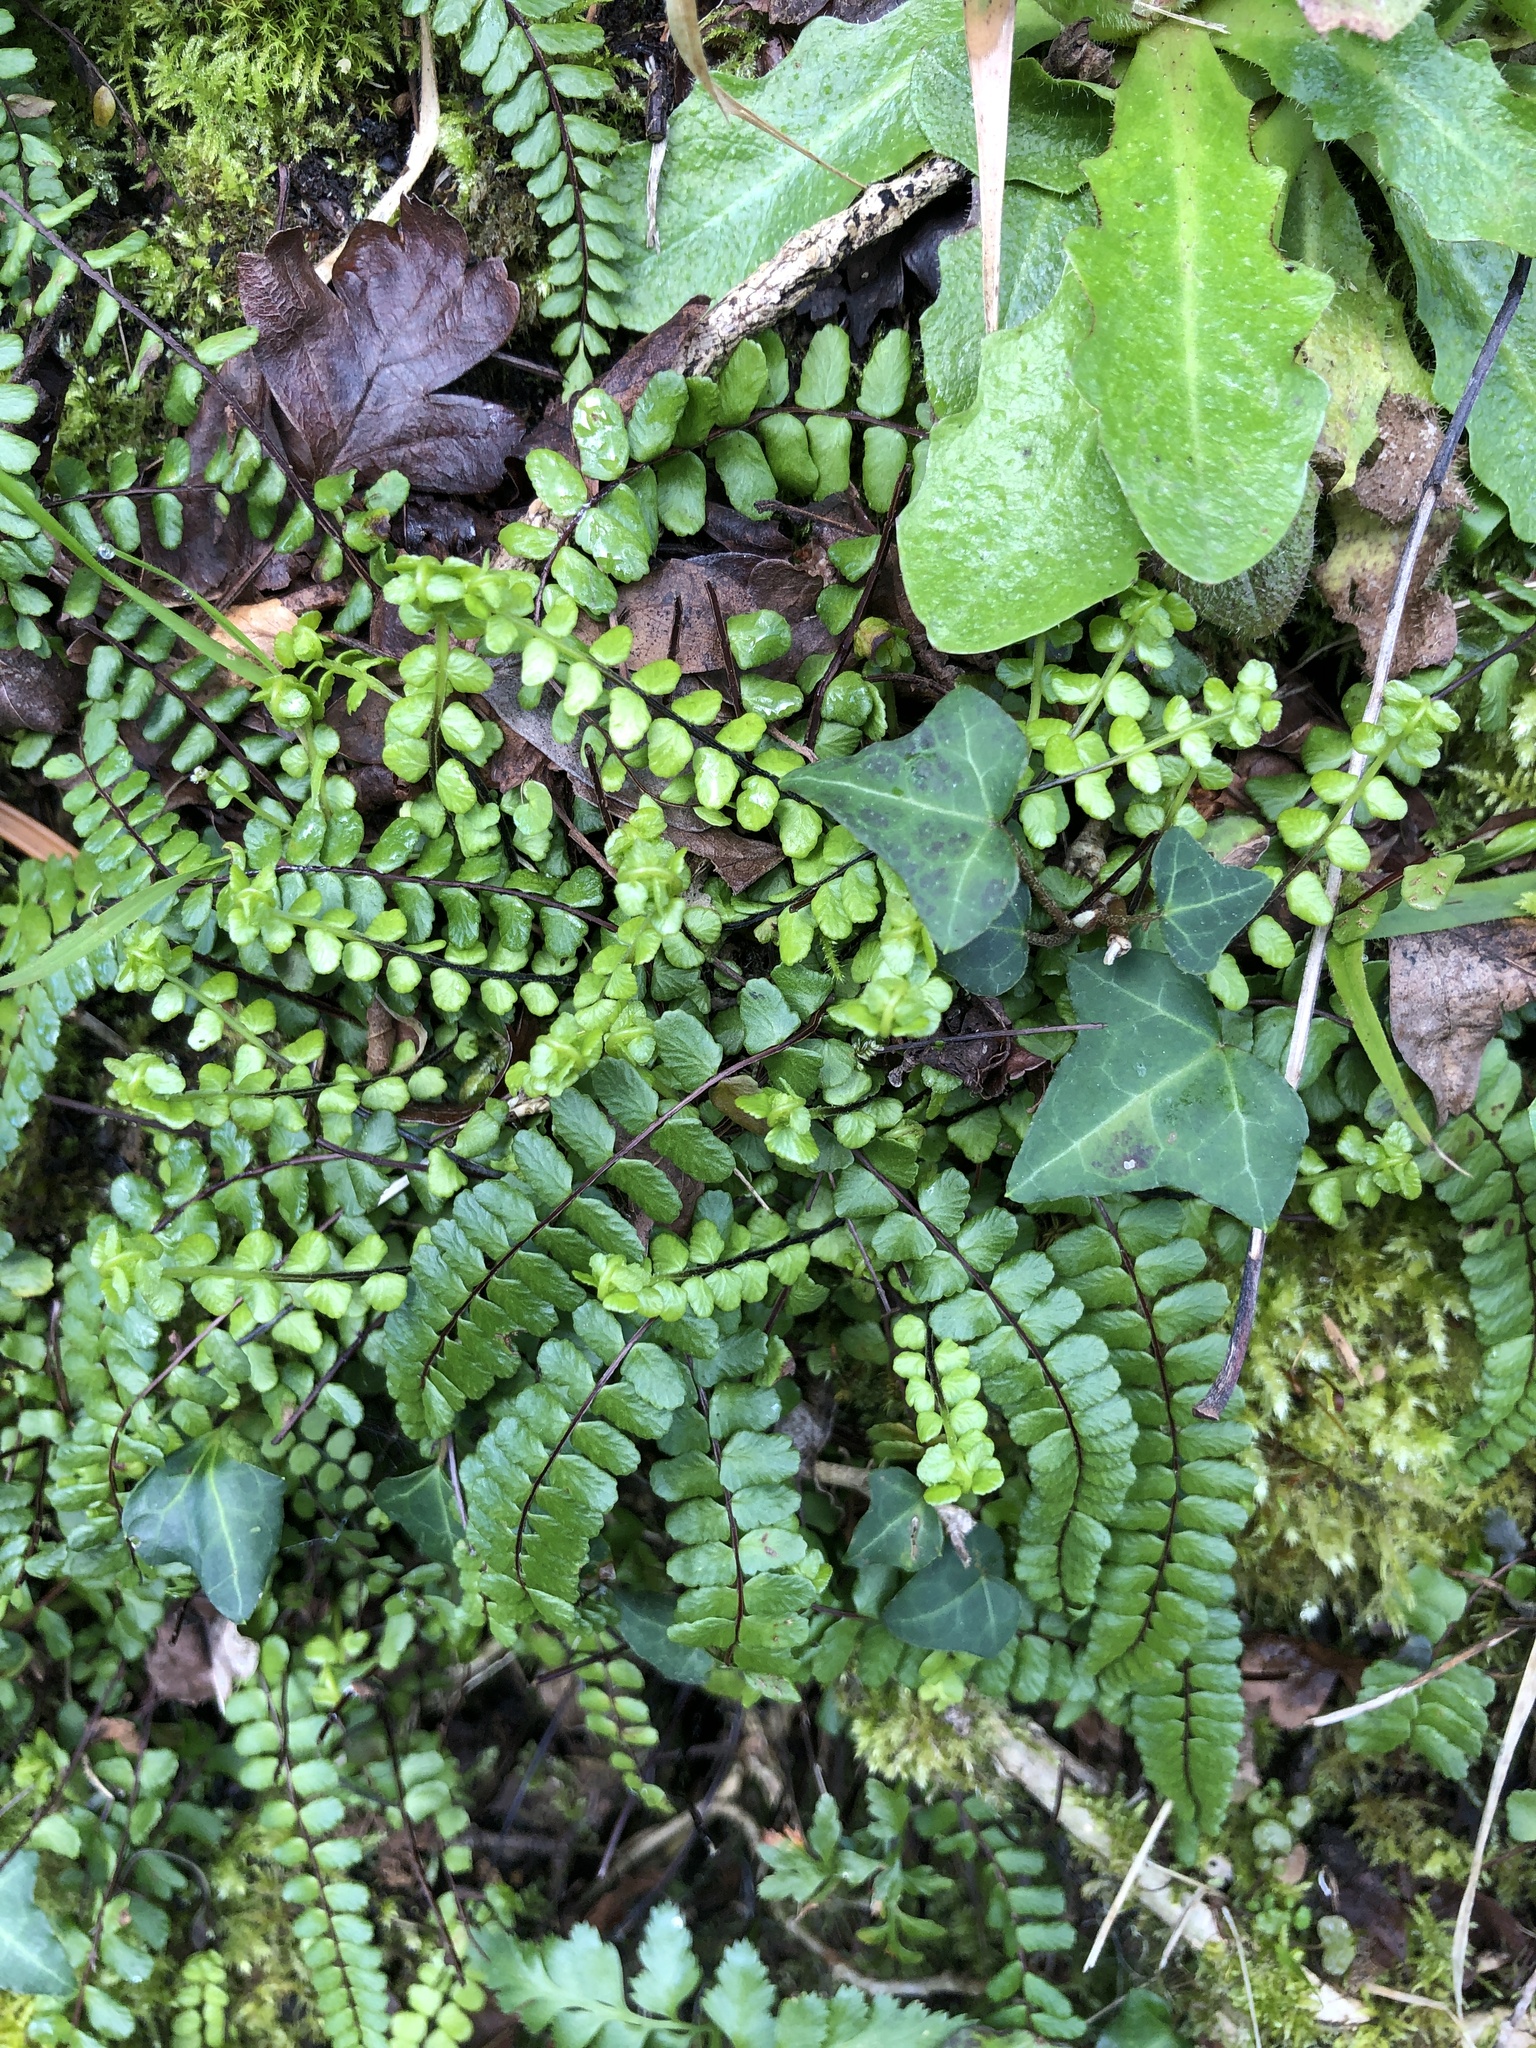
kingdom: Plantae
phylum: Tracheophyta
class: Polypodiopsida
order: Polypodiales
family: Aspleniaceae
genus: Asplenium
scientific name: Asplenium trichomanes
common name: Maidenhair spleenwort
